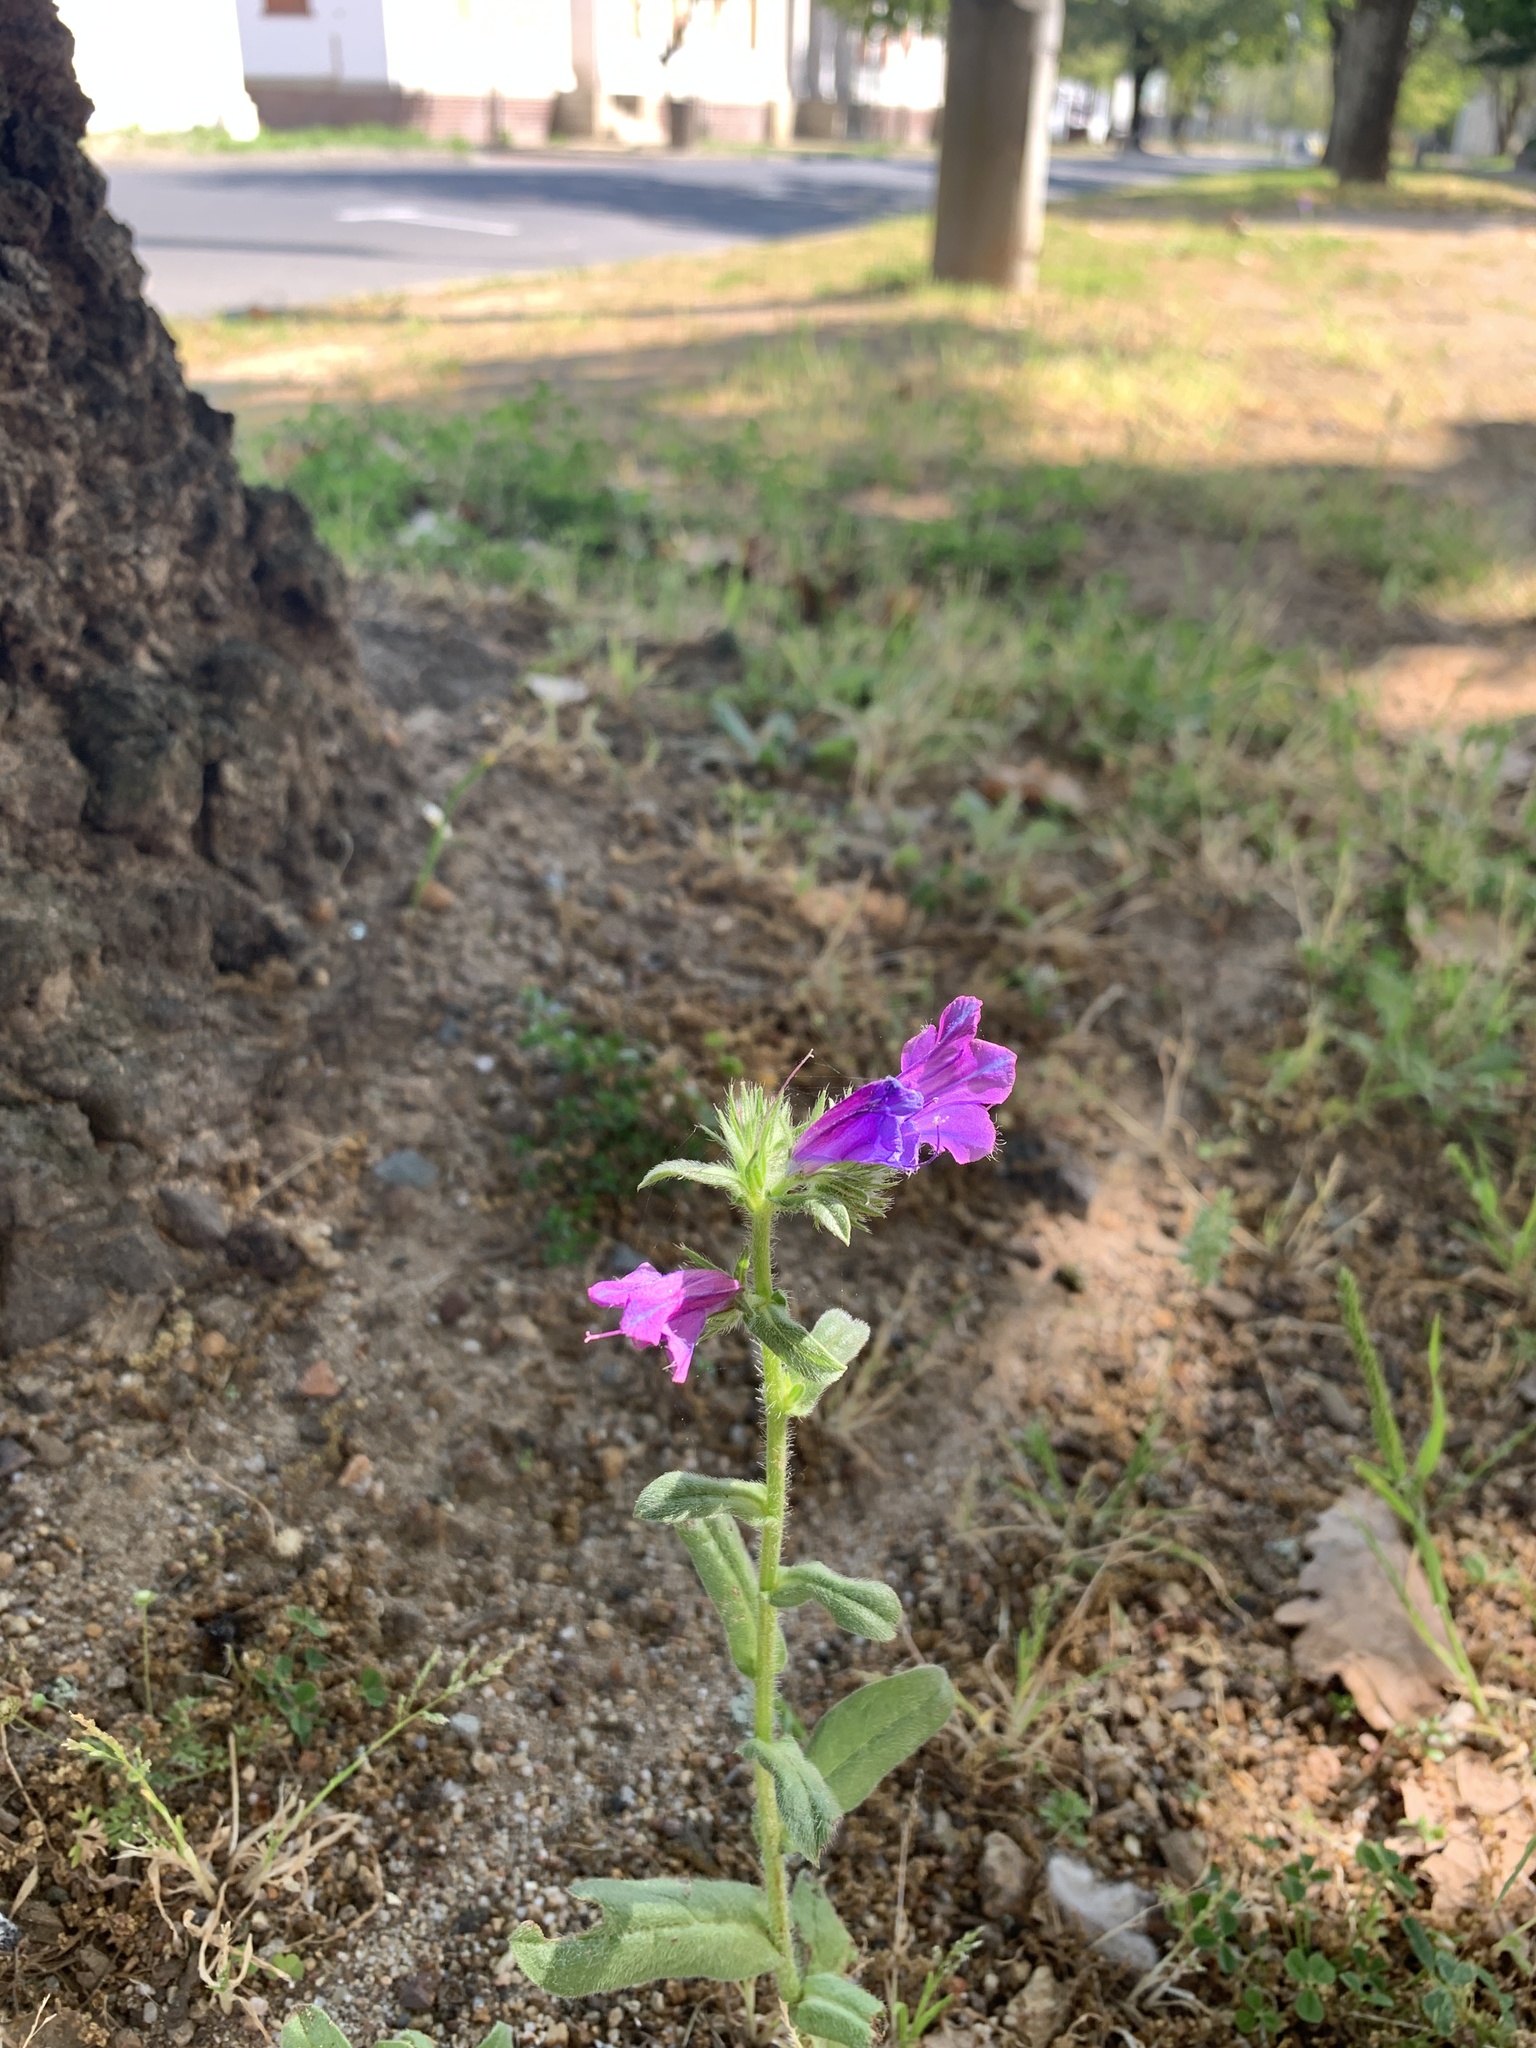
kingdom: Plantae
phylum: Tracheophyta
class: Magnoliopsida
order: Boraginales
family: Boraginaceae
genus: Echium
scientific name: Echium plantagineum
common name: Purple viper's-bugloss
